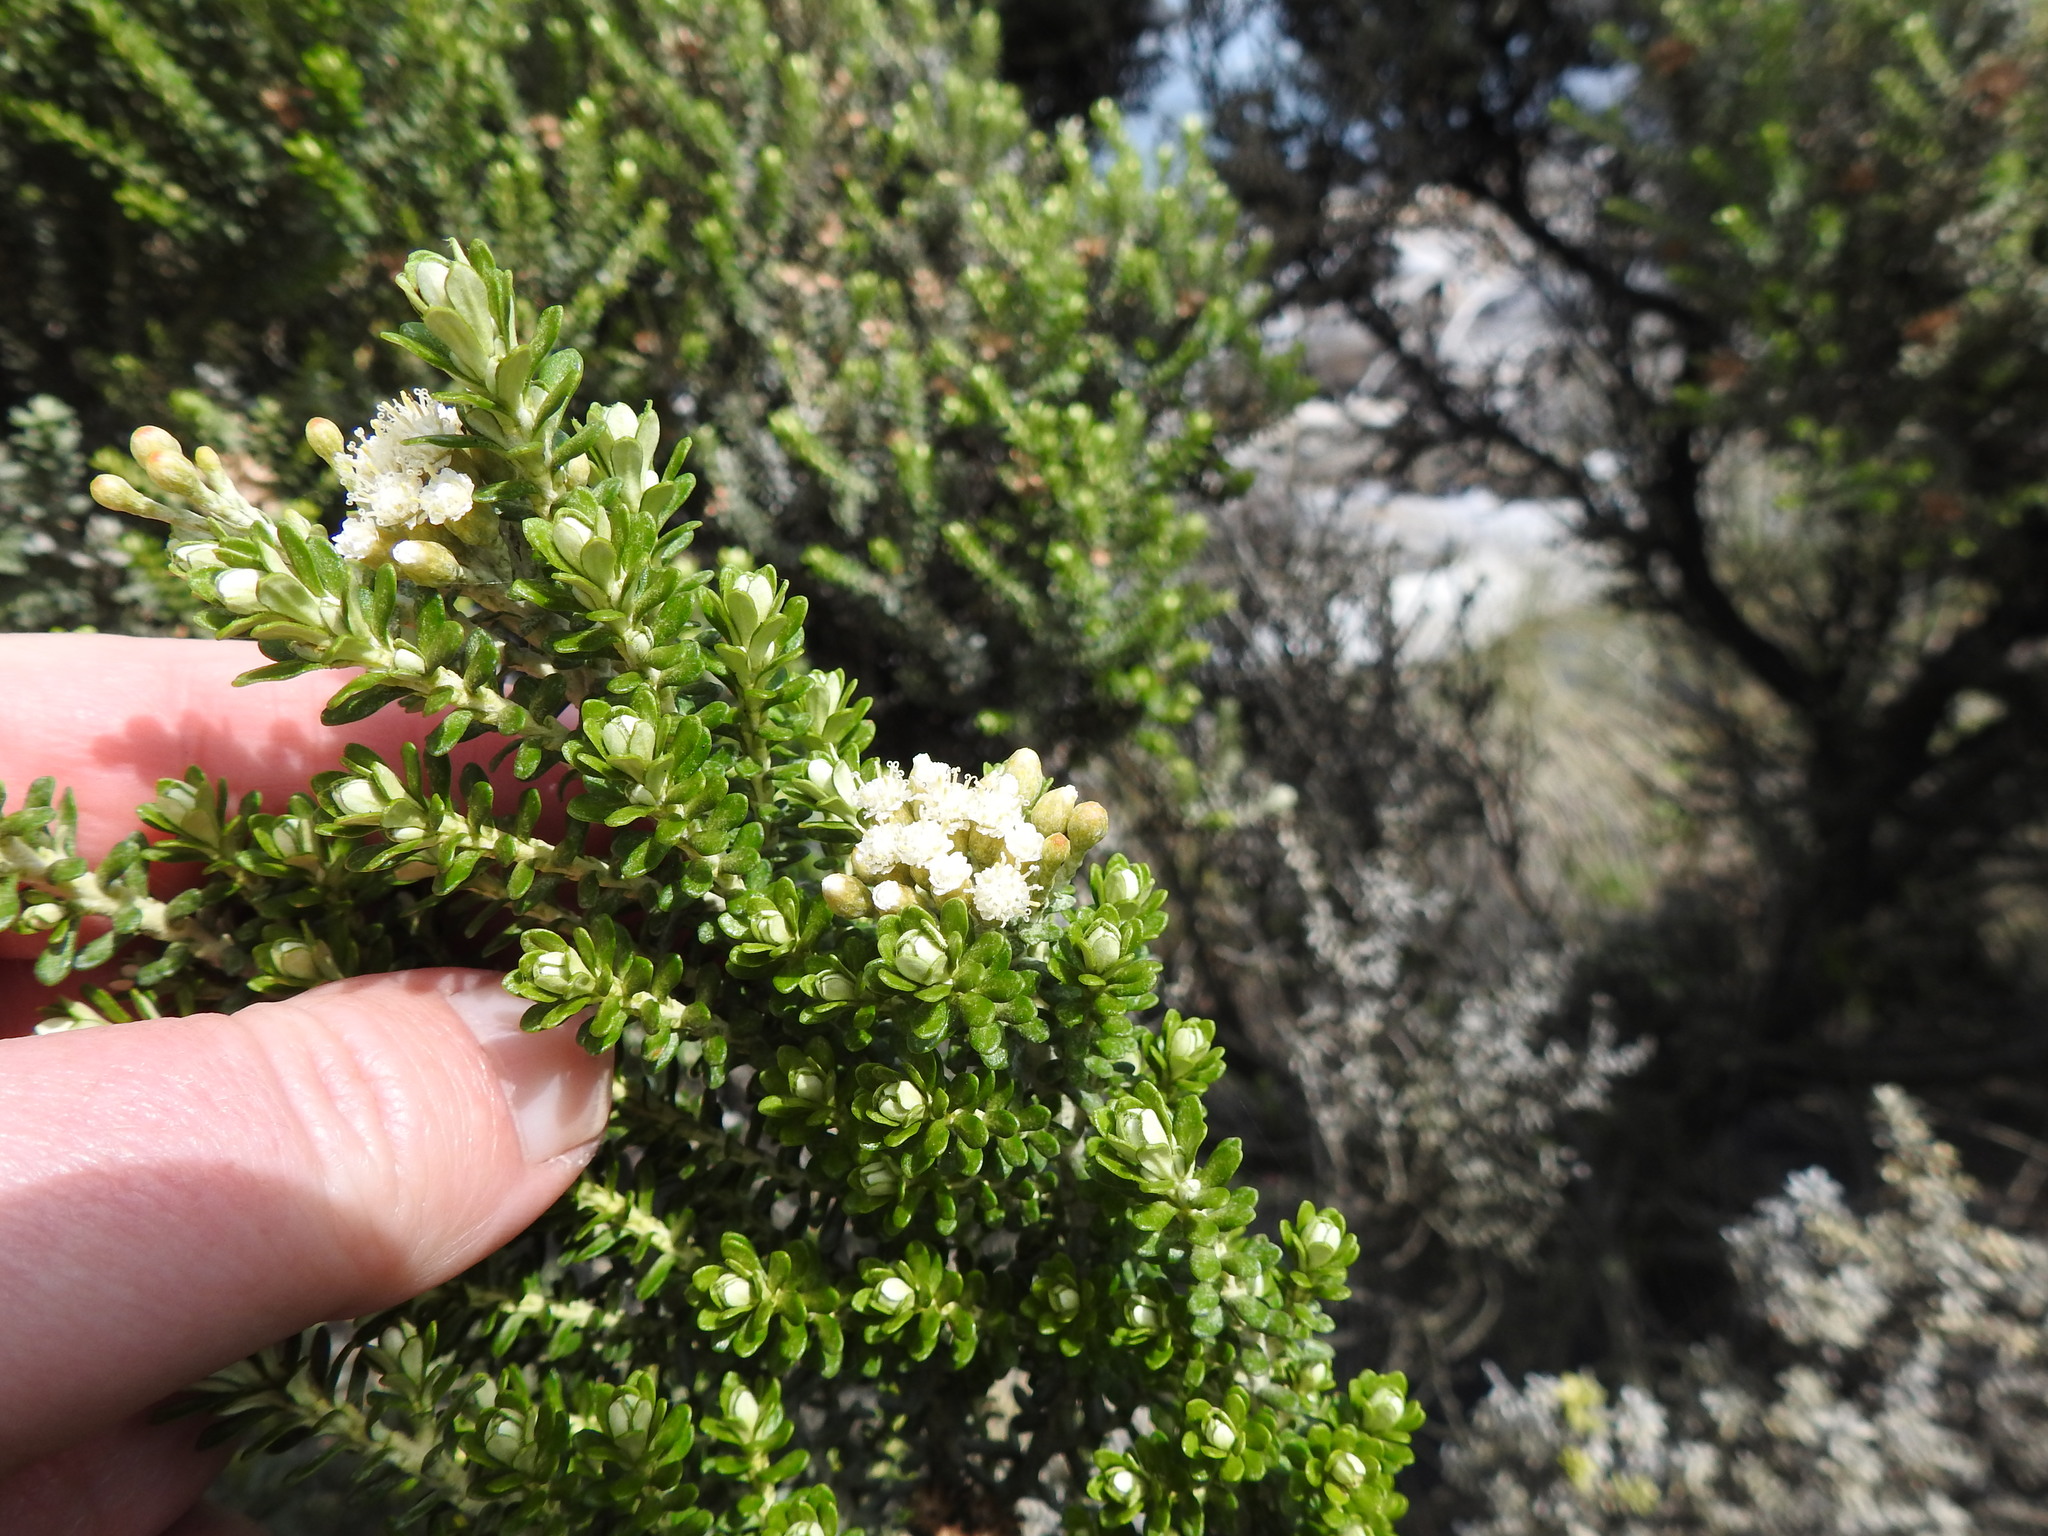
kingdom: Plantae
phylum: Tracheophyta
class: Magnoliopsida
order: Asterales
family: Asteraceae
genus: Ozothamnus
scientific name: Ozothamnus leptophyllus
